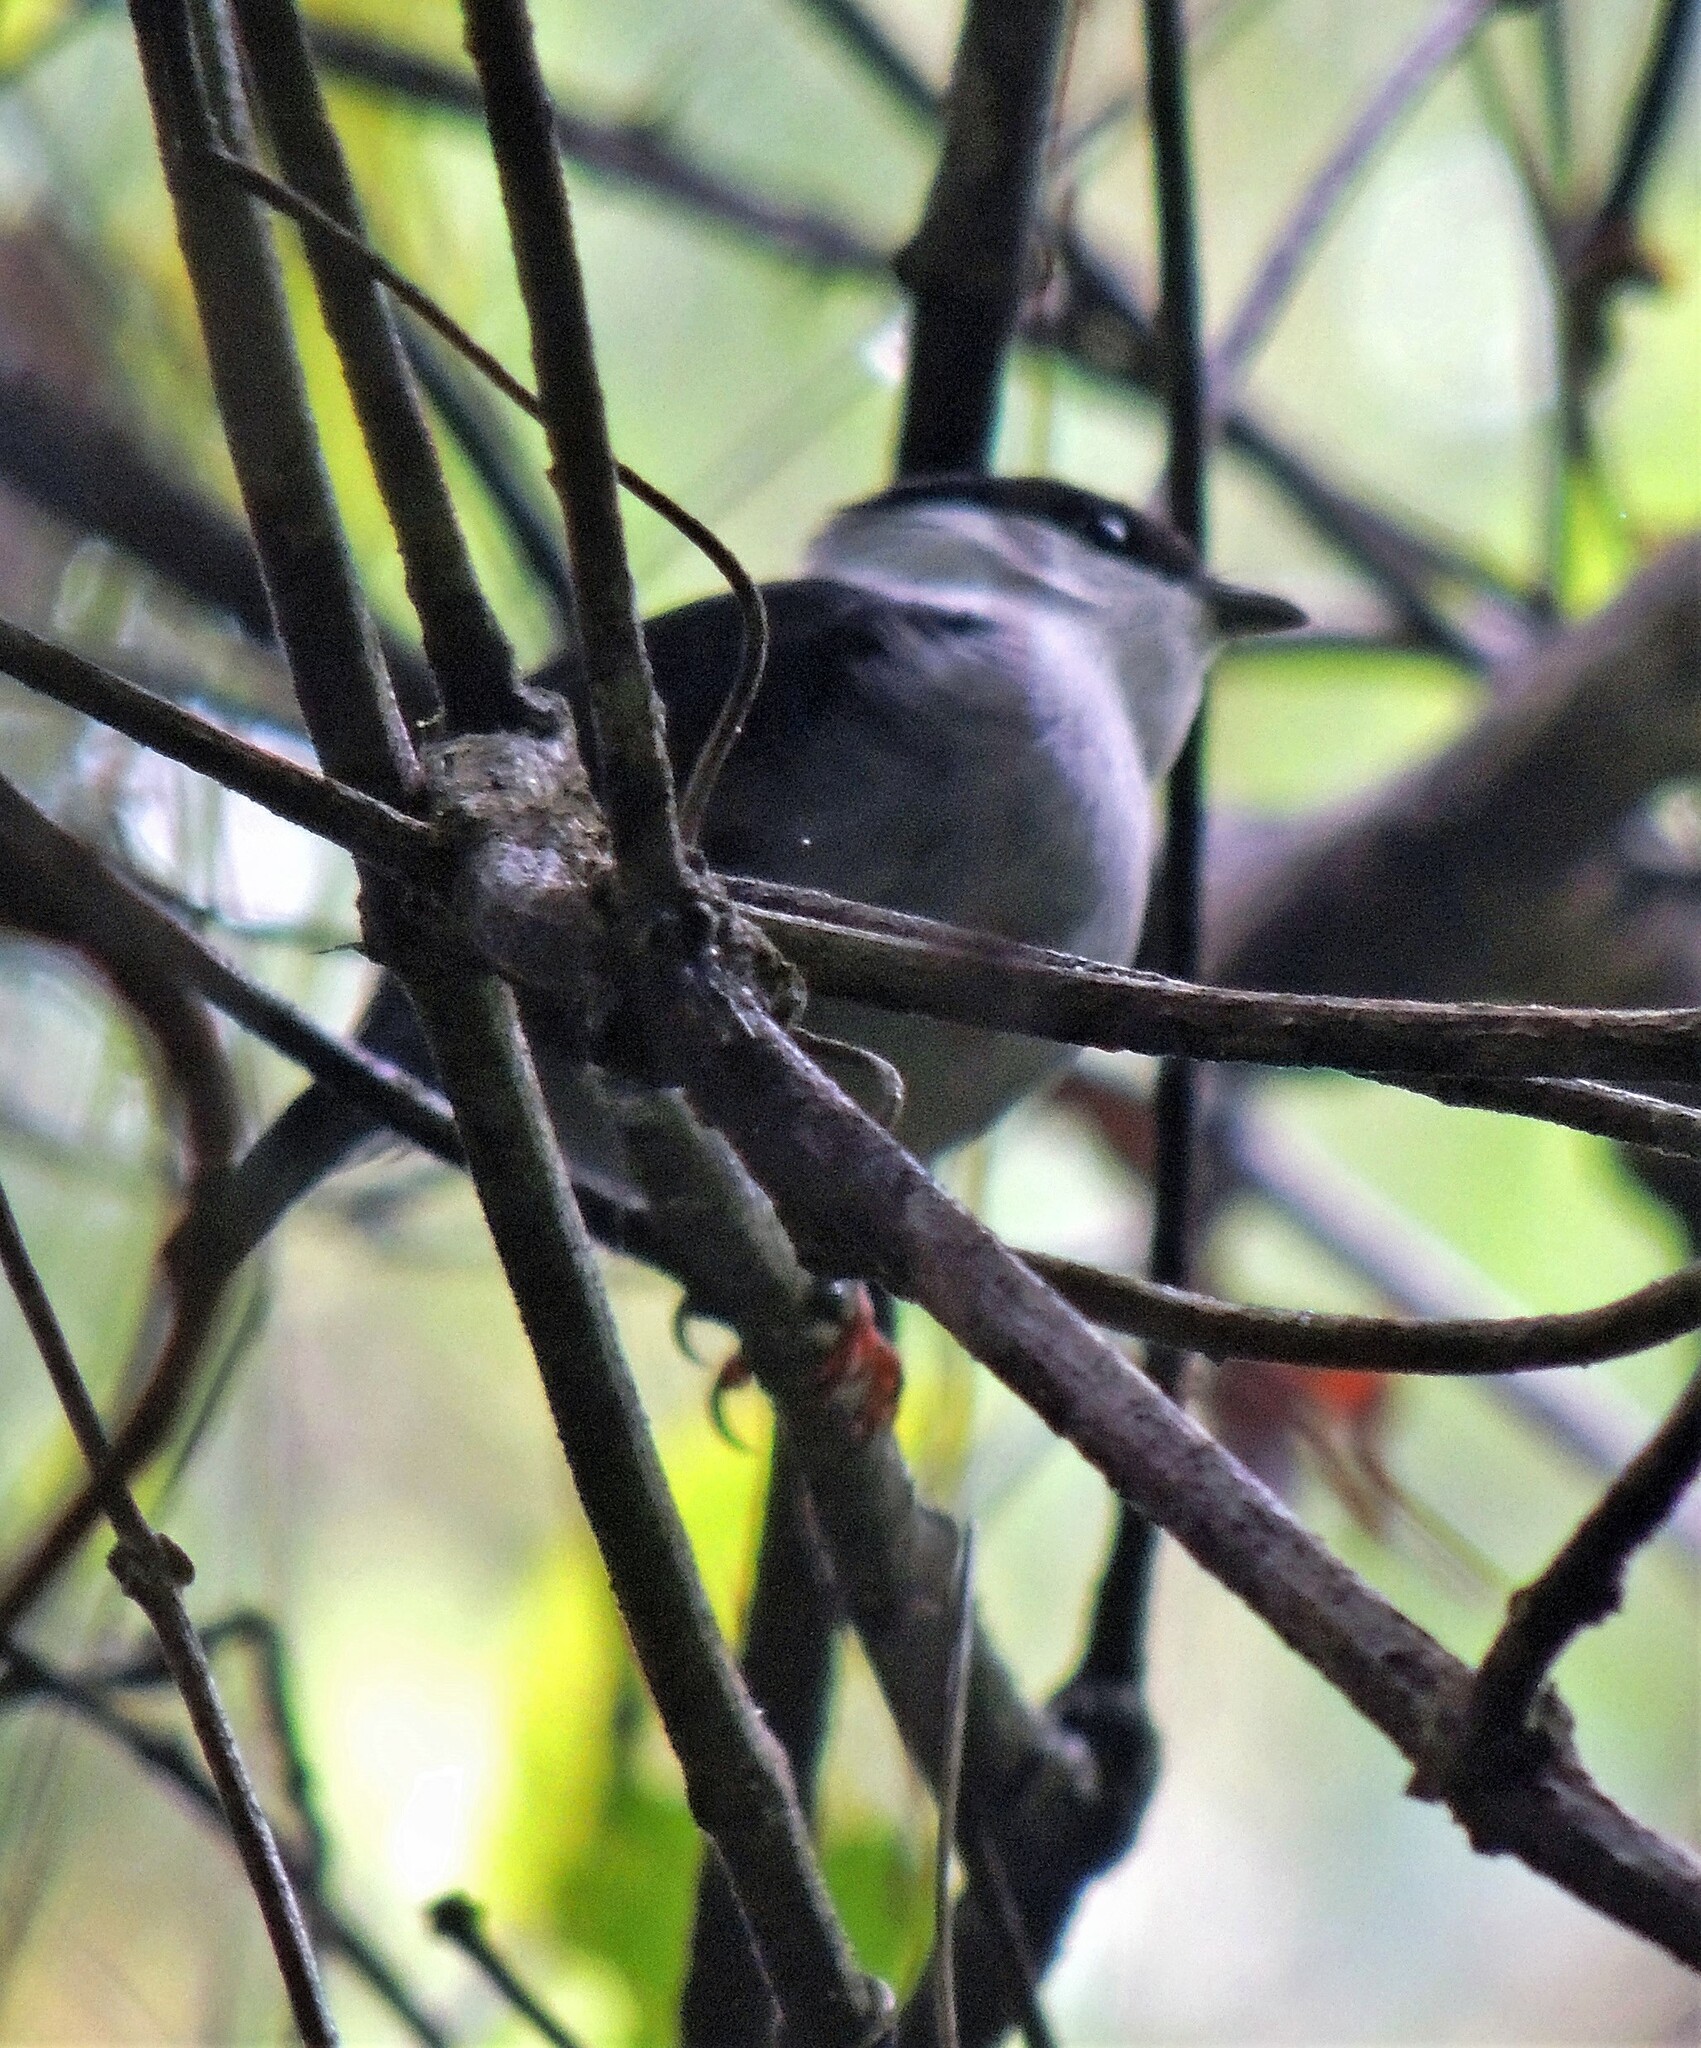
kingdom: Animalia
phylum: Chordata
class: Aves
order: Passeriformes
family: Pipridae
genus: Manacus
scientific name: Manacus manacus
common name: White-bearded manakin
